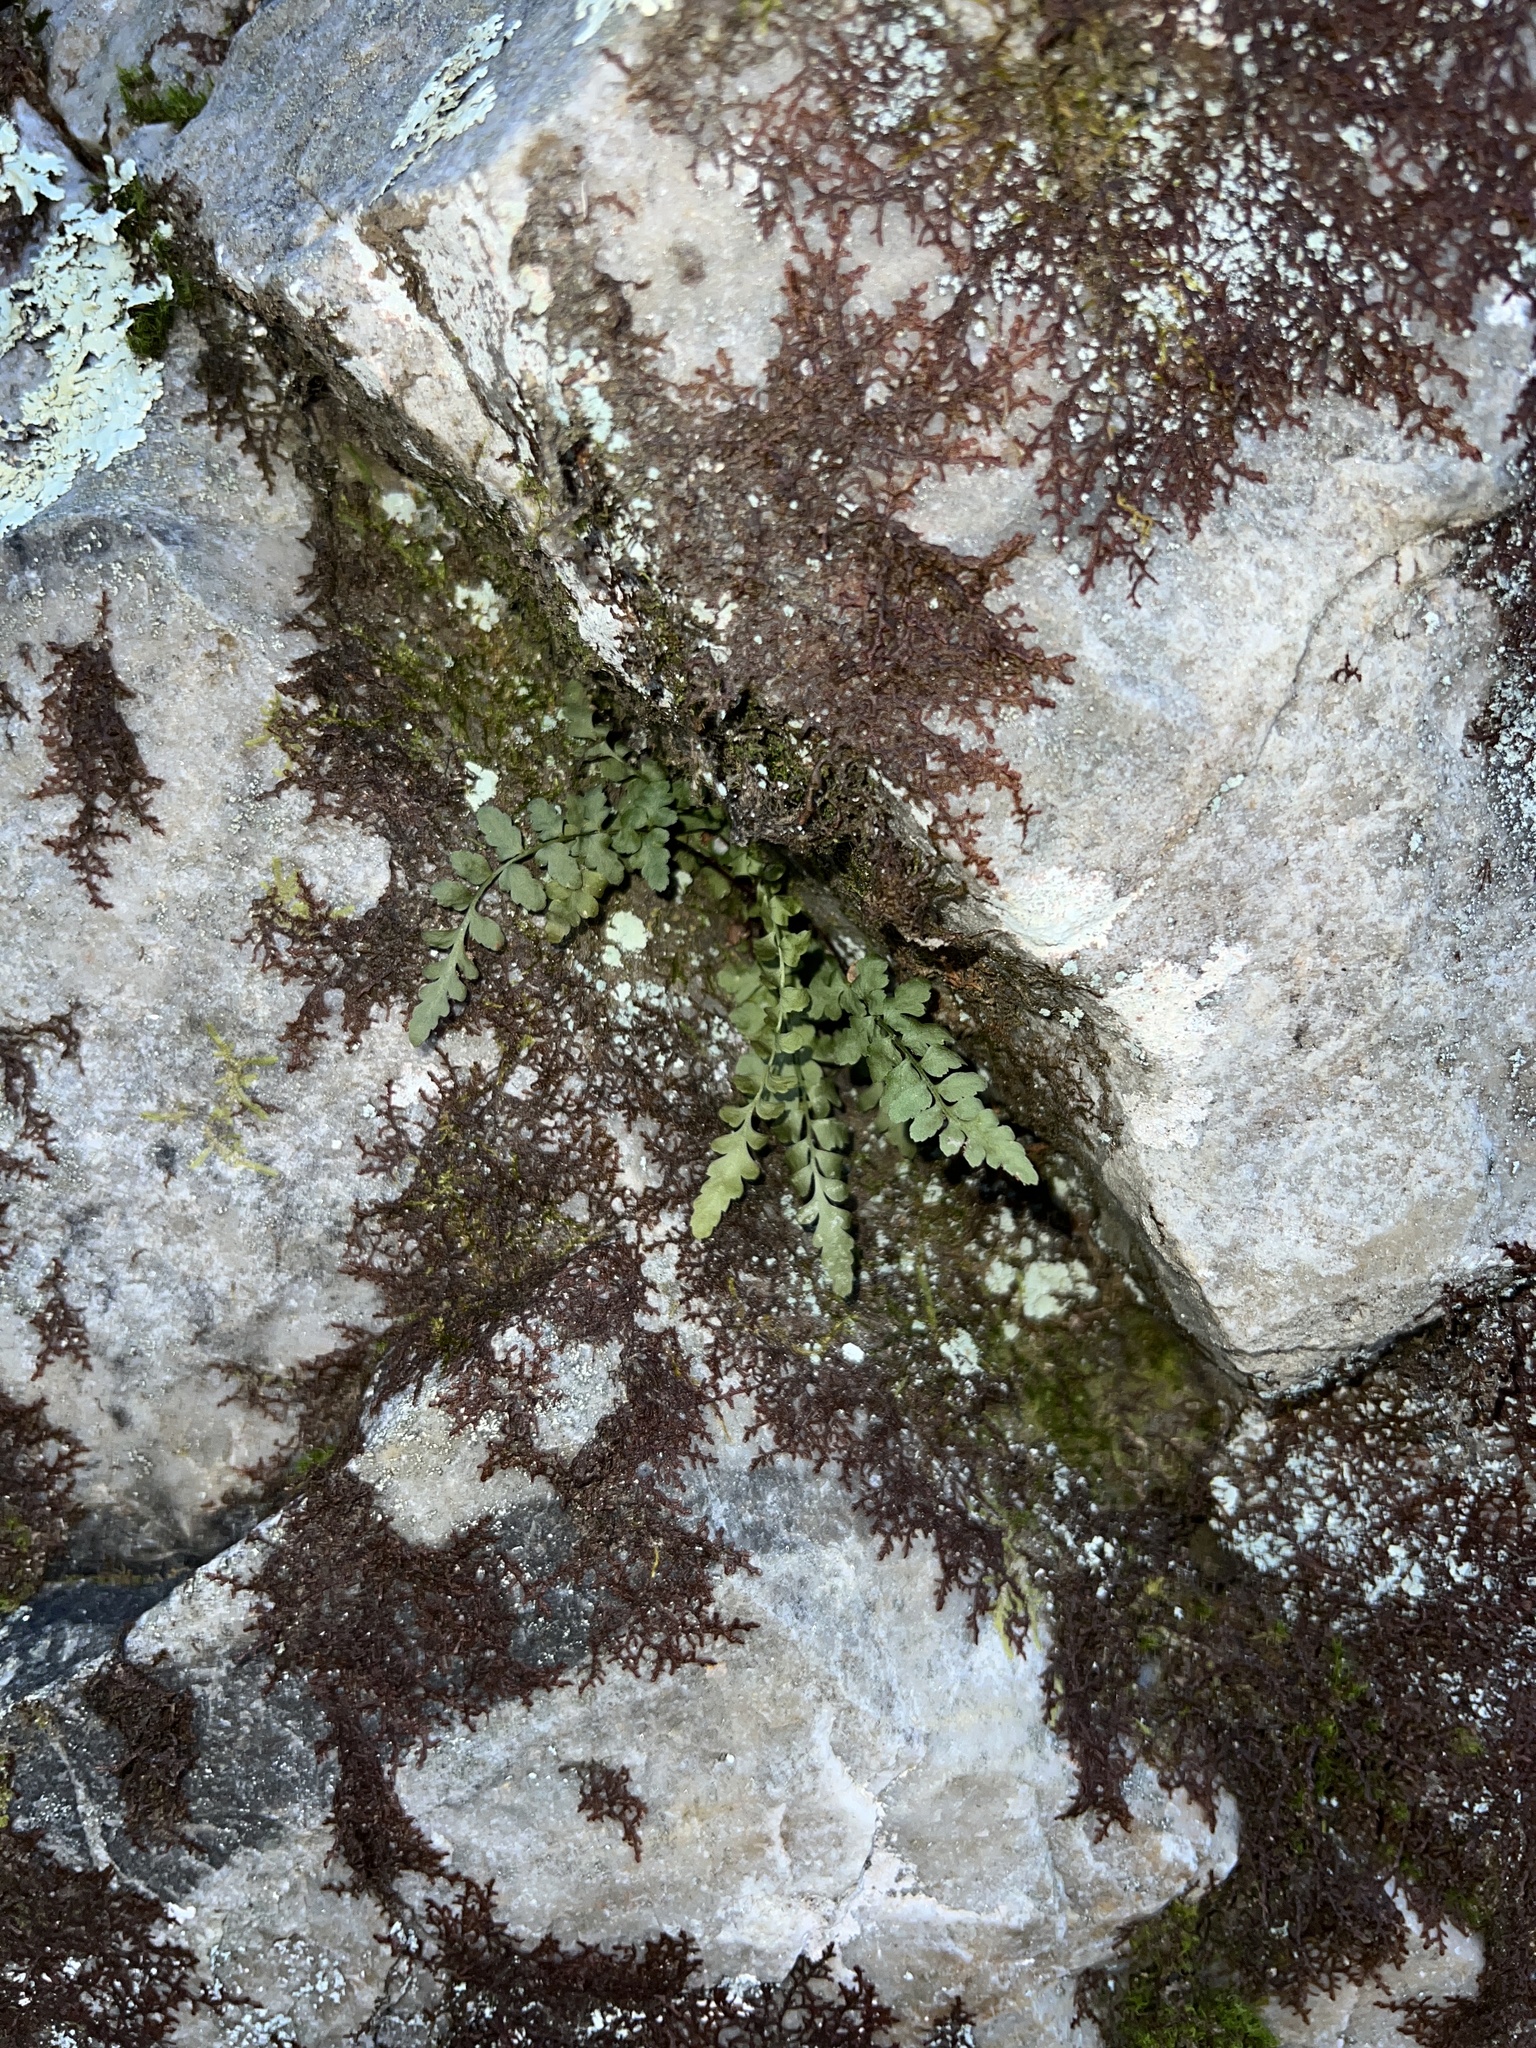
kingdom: Plantae
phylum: Tracheophyta
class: Polypodiopsida
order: Polypodiales
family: Aspleniaceae
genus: Asplenium
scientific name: Asplenium bradleyi
